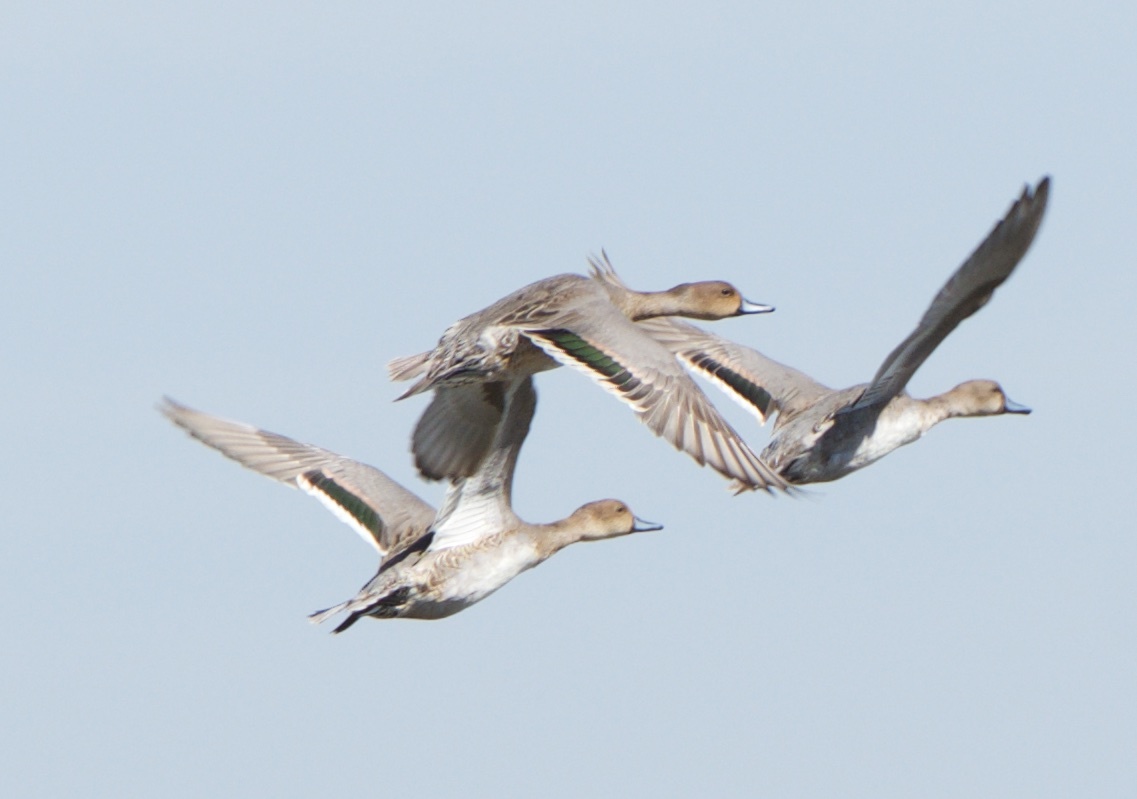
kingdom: Animalia
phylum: Chordata
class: Aves
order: Anseriformes
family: Anatidae
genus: Anas
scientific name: Anas acuta
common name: Northern pintail
